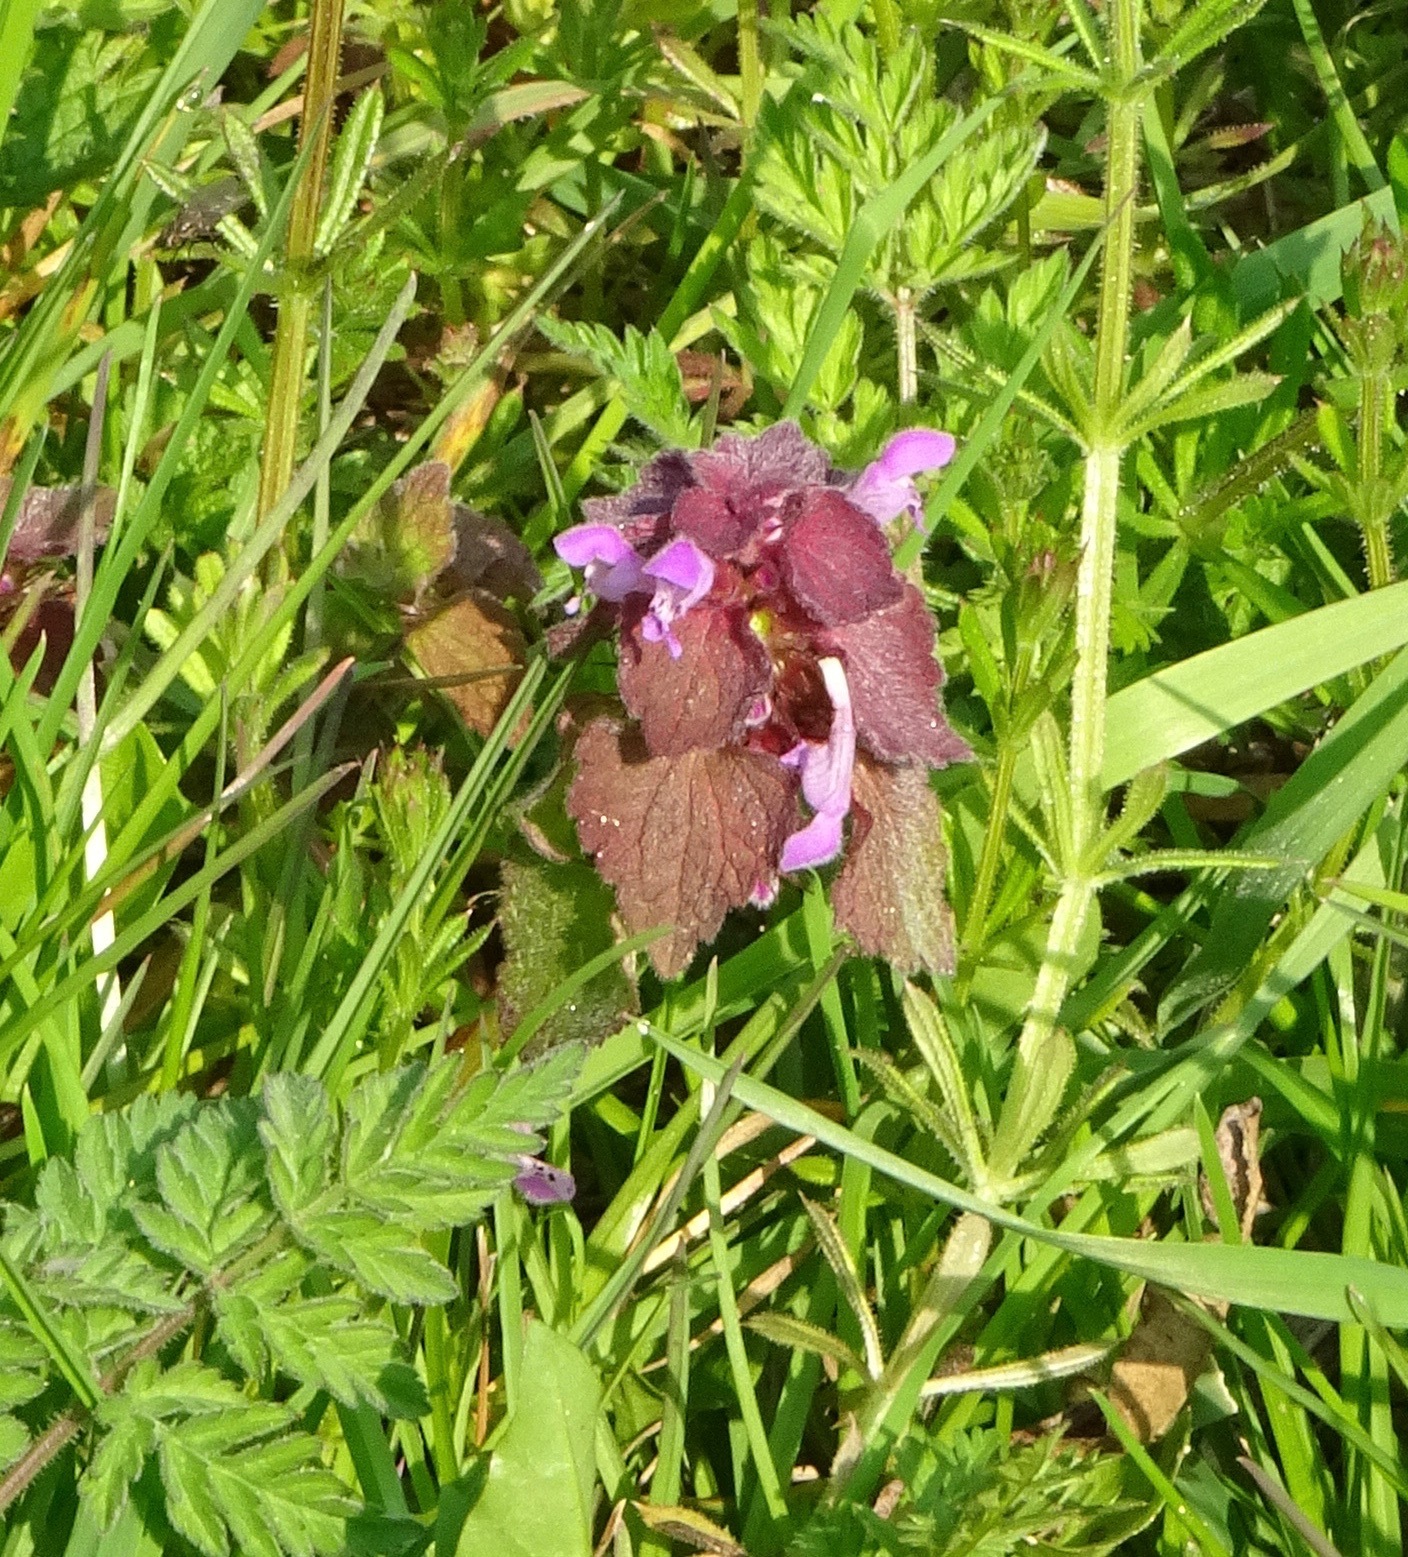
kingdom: Plantae
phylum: Tracheophyta
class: Magnoliopsida
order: Lamiales
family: Lamiaceae
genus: Lamium
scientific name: Lamium purpureum
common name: Red dead-nettle
